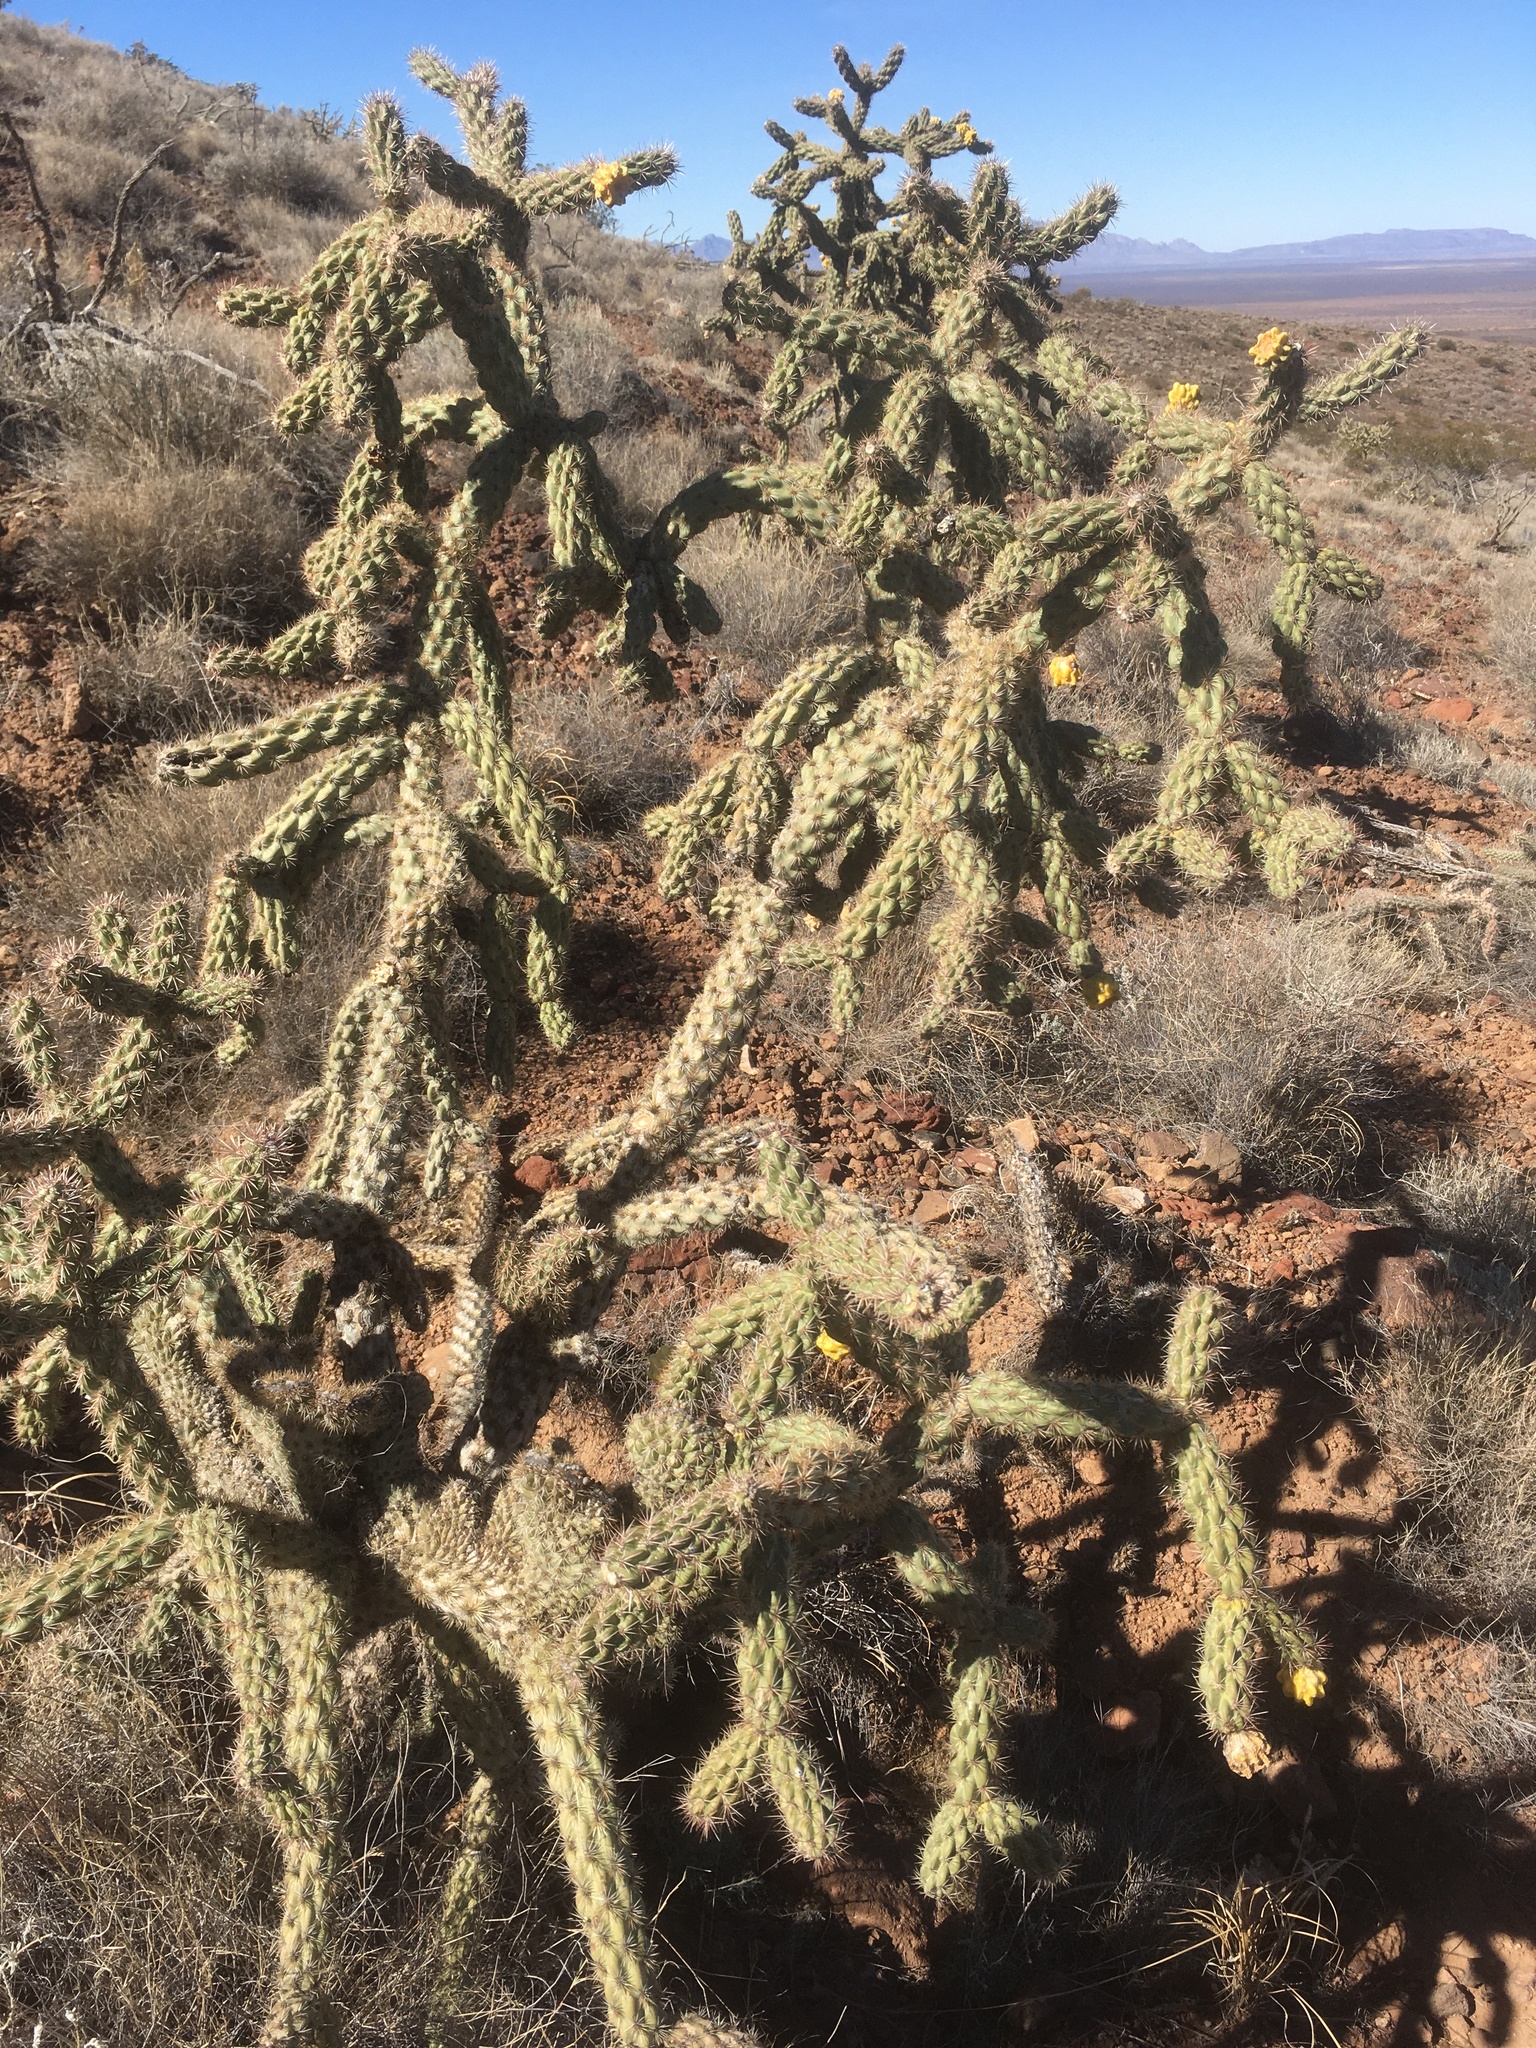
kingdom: Plantae
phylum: Tracheophyta
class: Magnoliopsida
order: Caryophyllales
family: Cactaceae
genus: Cylindropuntia
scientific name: Cylindropuntia imbricata
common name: Candelabrum cactus
